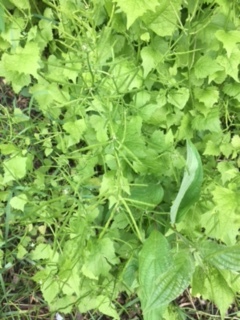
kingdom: Plantae
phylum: Tracheophyta
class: Magnoliopsida
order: Brassicales
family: Brassicaceae
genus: Alliaria
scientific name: Alliaria petiolata
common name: Garlic mustard
